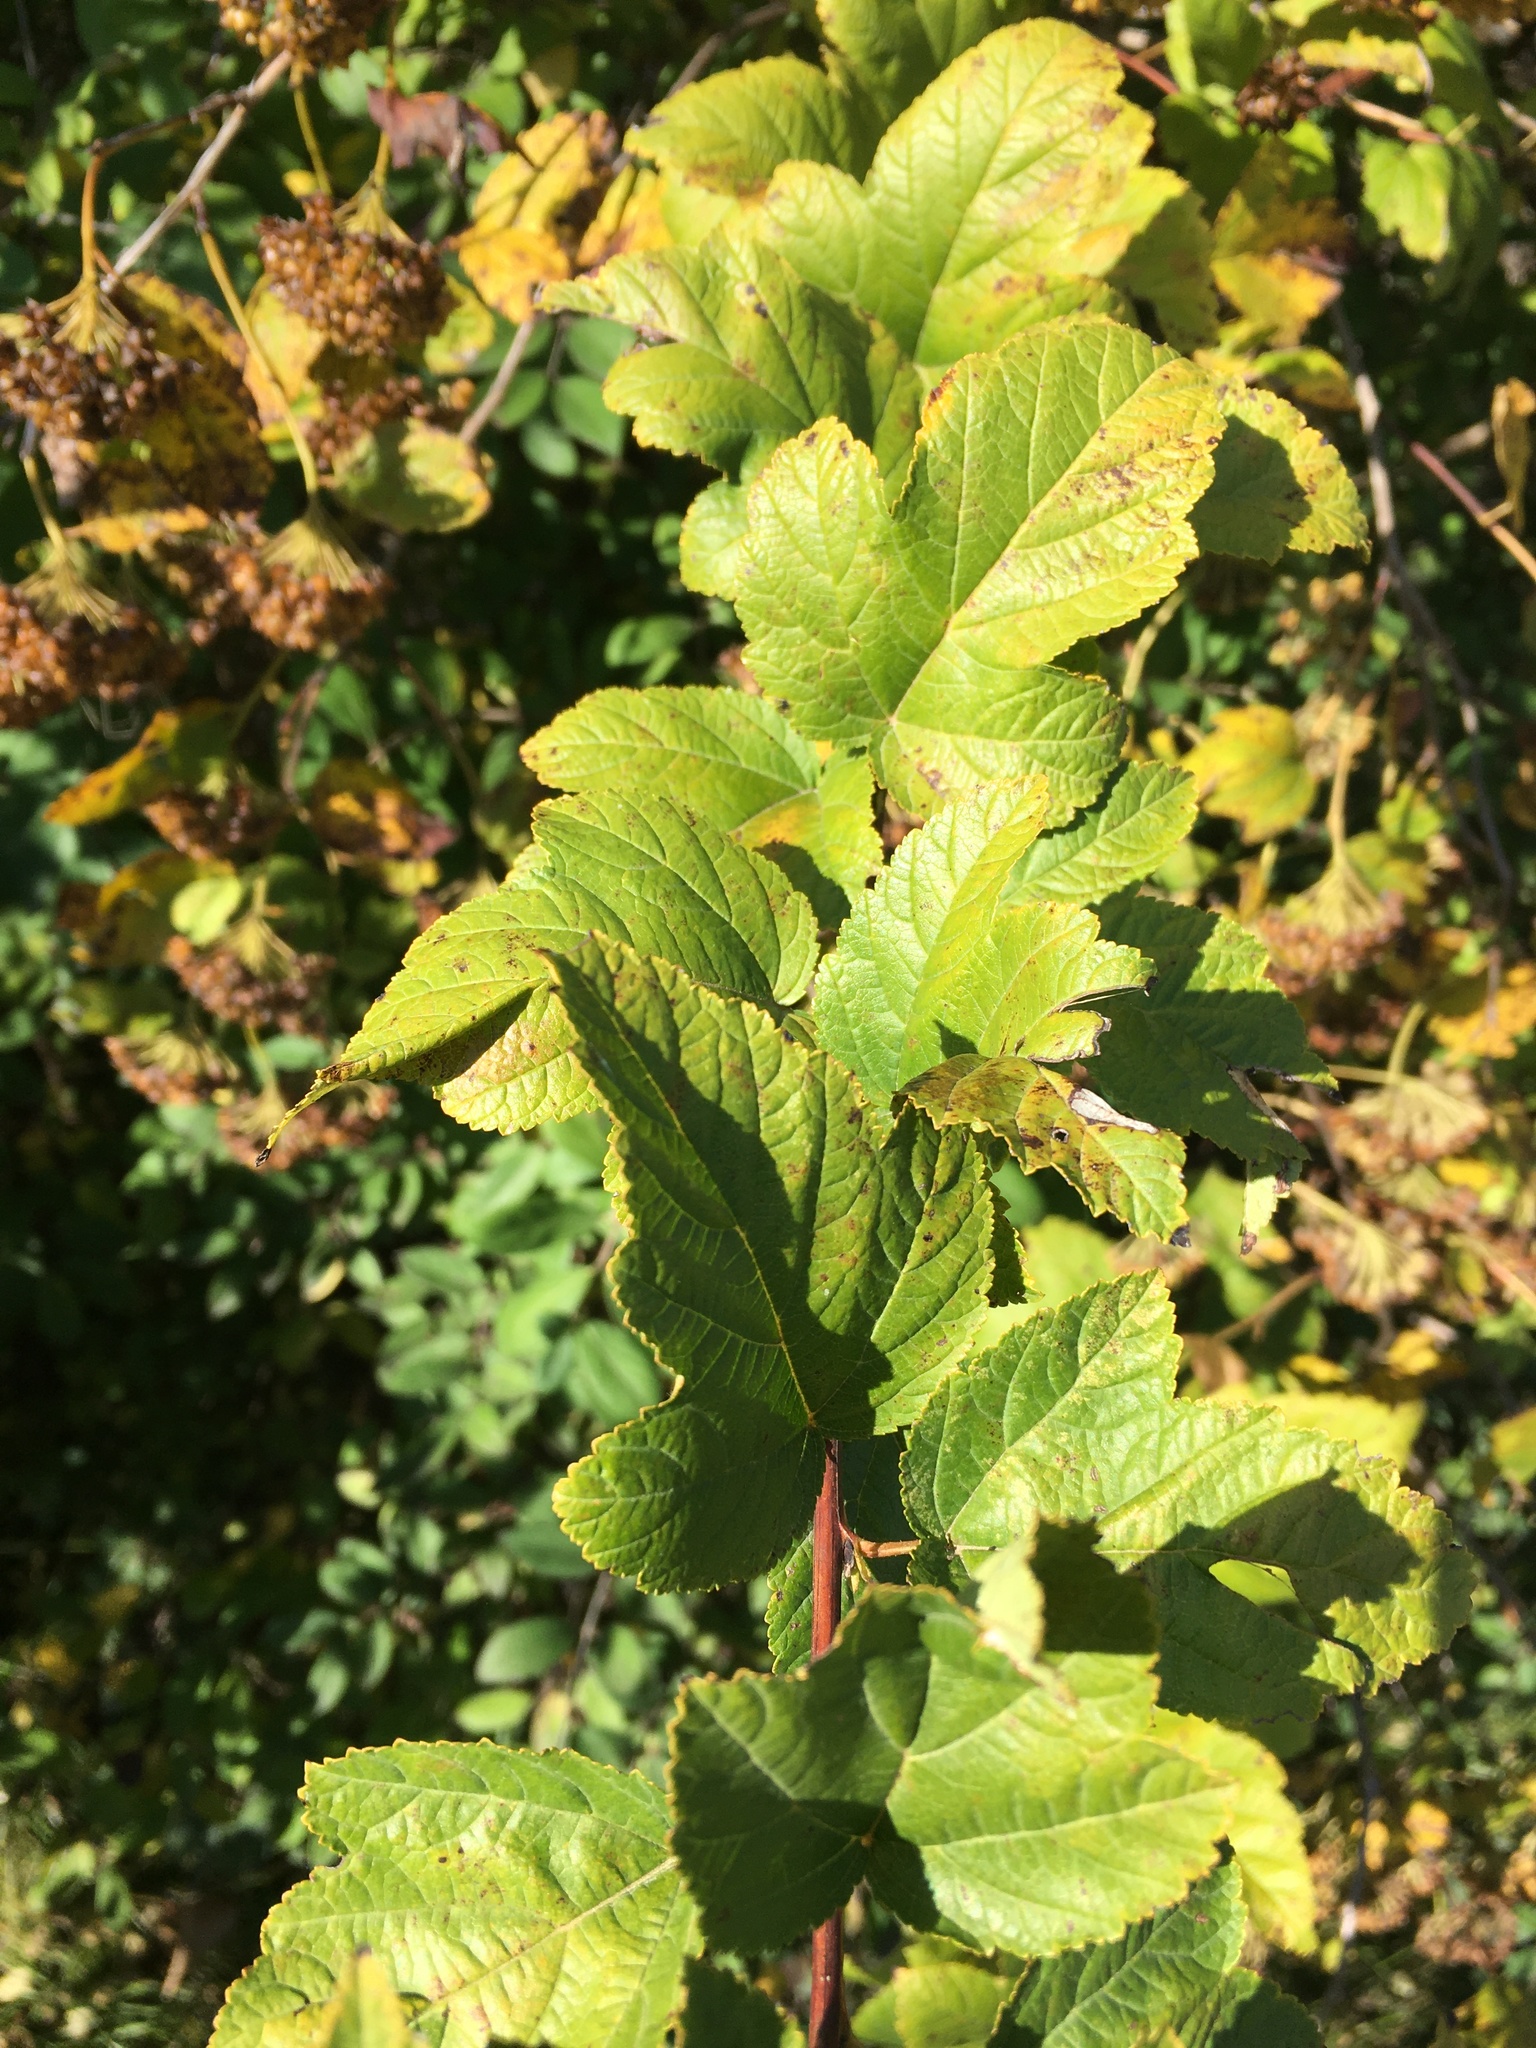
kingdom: Plantae
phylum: Tracheophyta
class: Magnoliopsida
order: Rosales
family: Rosaceae
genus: Physocarpus
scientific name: Physocarpus opulifolius
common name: Ninebark
